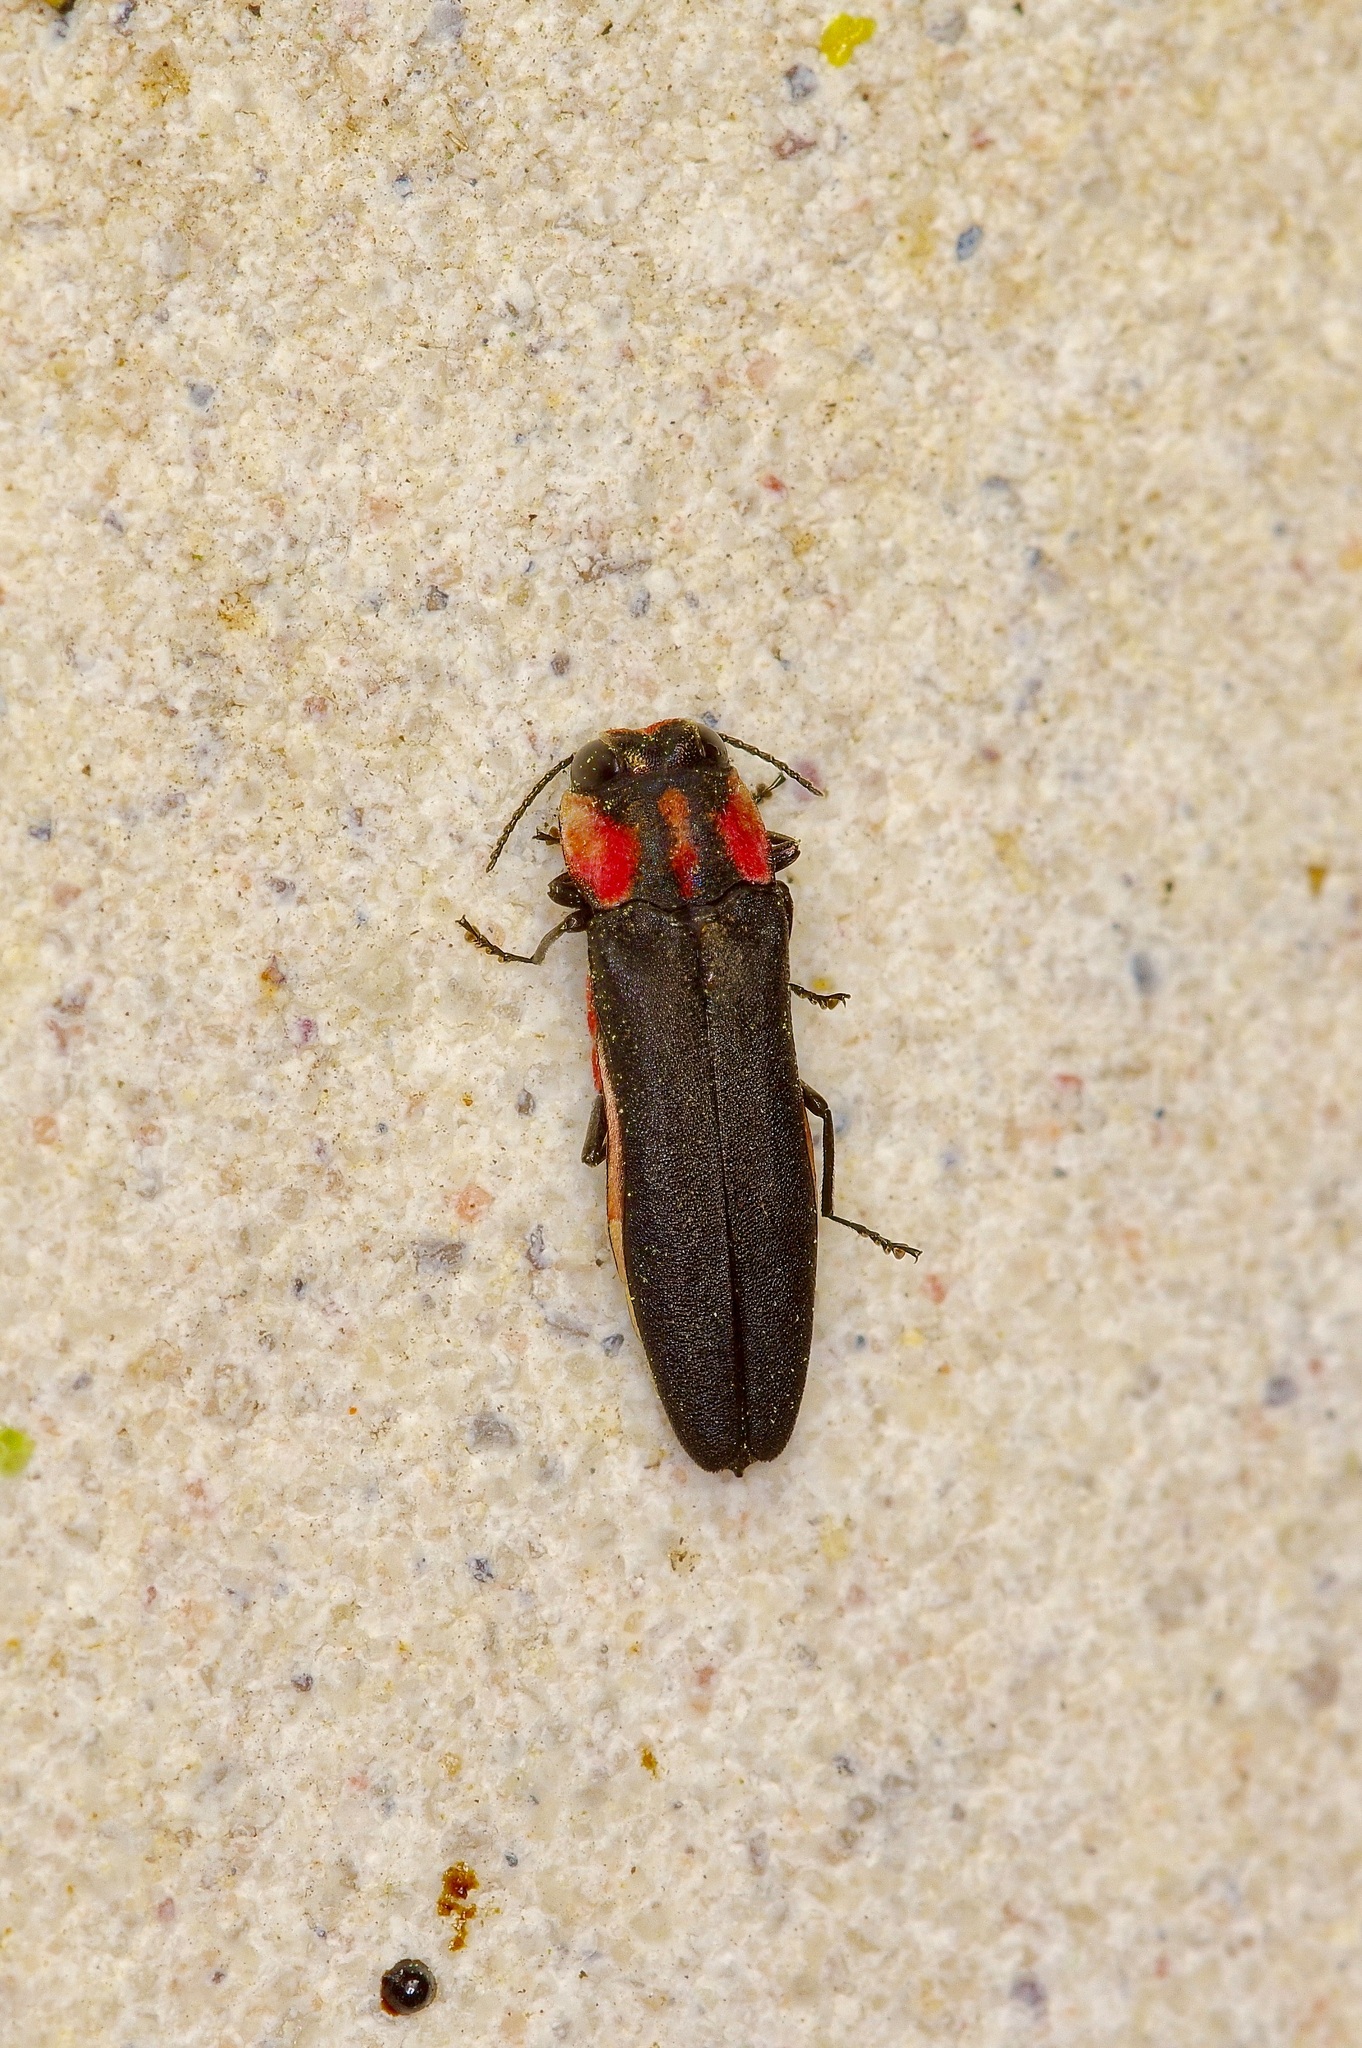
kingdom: Animalia
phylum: Arthropoda
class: Insecta
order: Coleoptera
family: Buprestidae
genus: Agrilus
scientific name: Agrilus benjamini
